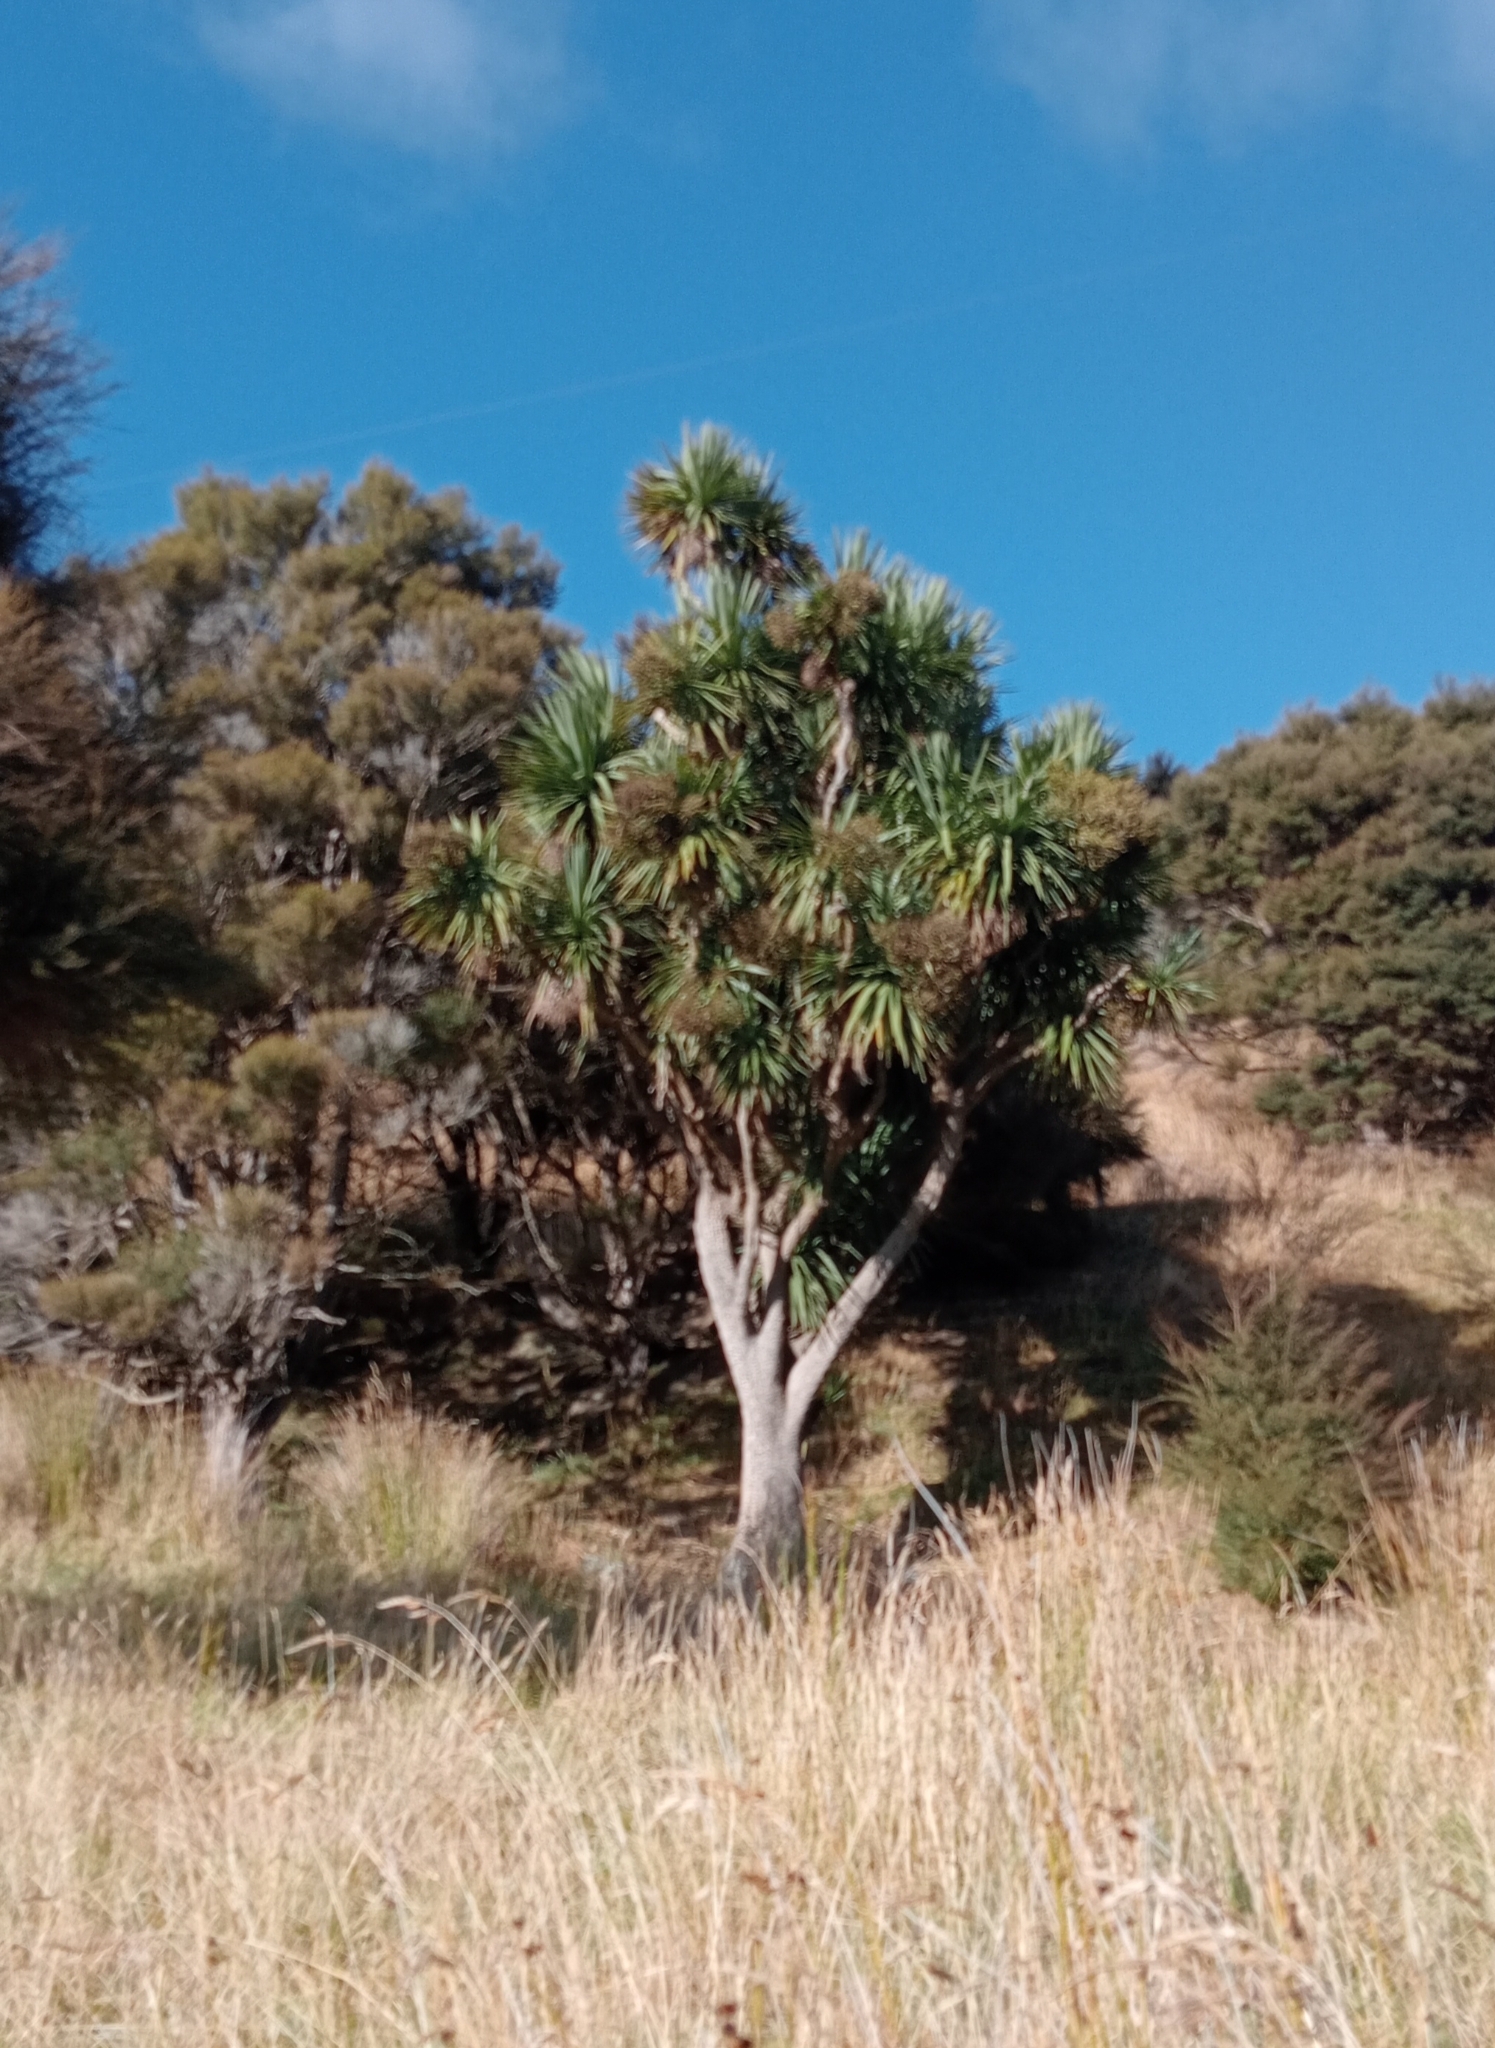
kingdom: Plantae
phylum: Tracheophyta
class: Liliopsida
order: Asparagales
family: Asparagaceae
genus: Cordyline
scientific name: Cordyline australis
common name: Cabbage-palm
